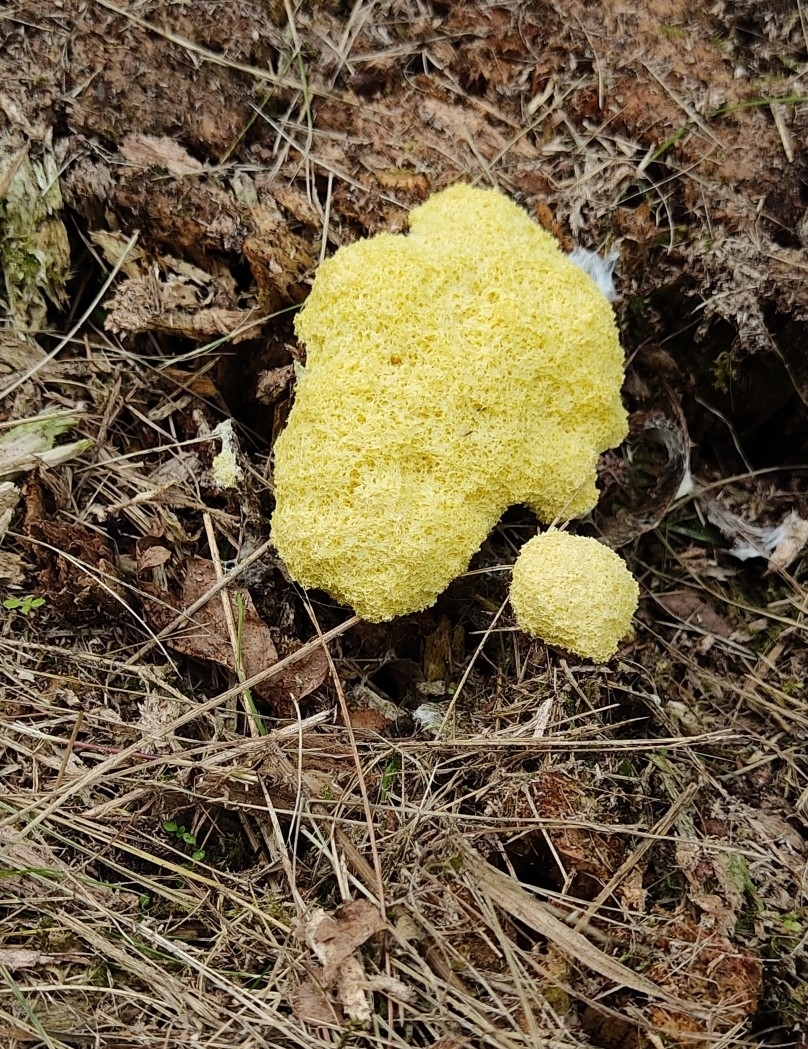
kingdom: Protozoa
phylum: Mycetozoa
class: Myxomycetes
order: Physarales
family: Physaraceae
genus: Fuligo
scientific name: Fuligo septica
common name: Dog vomit slime mold
